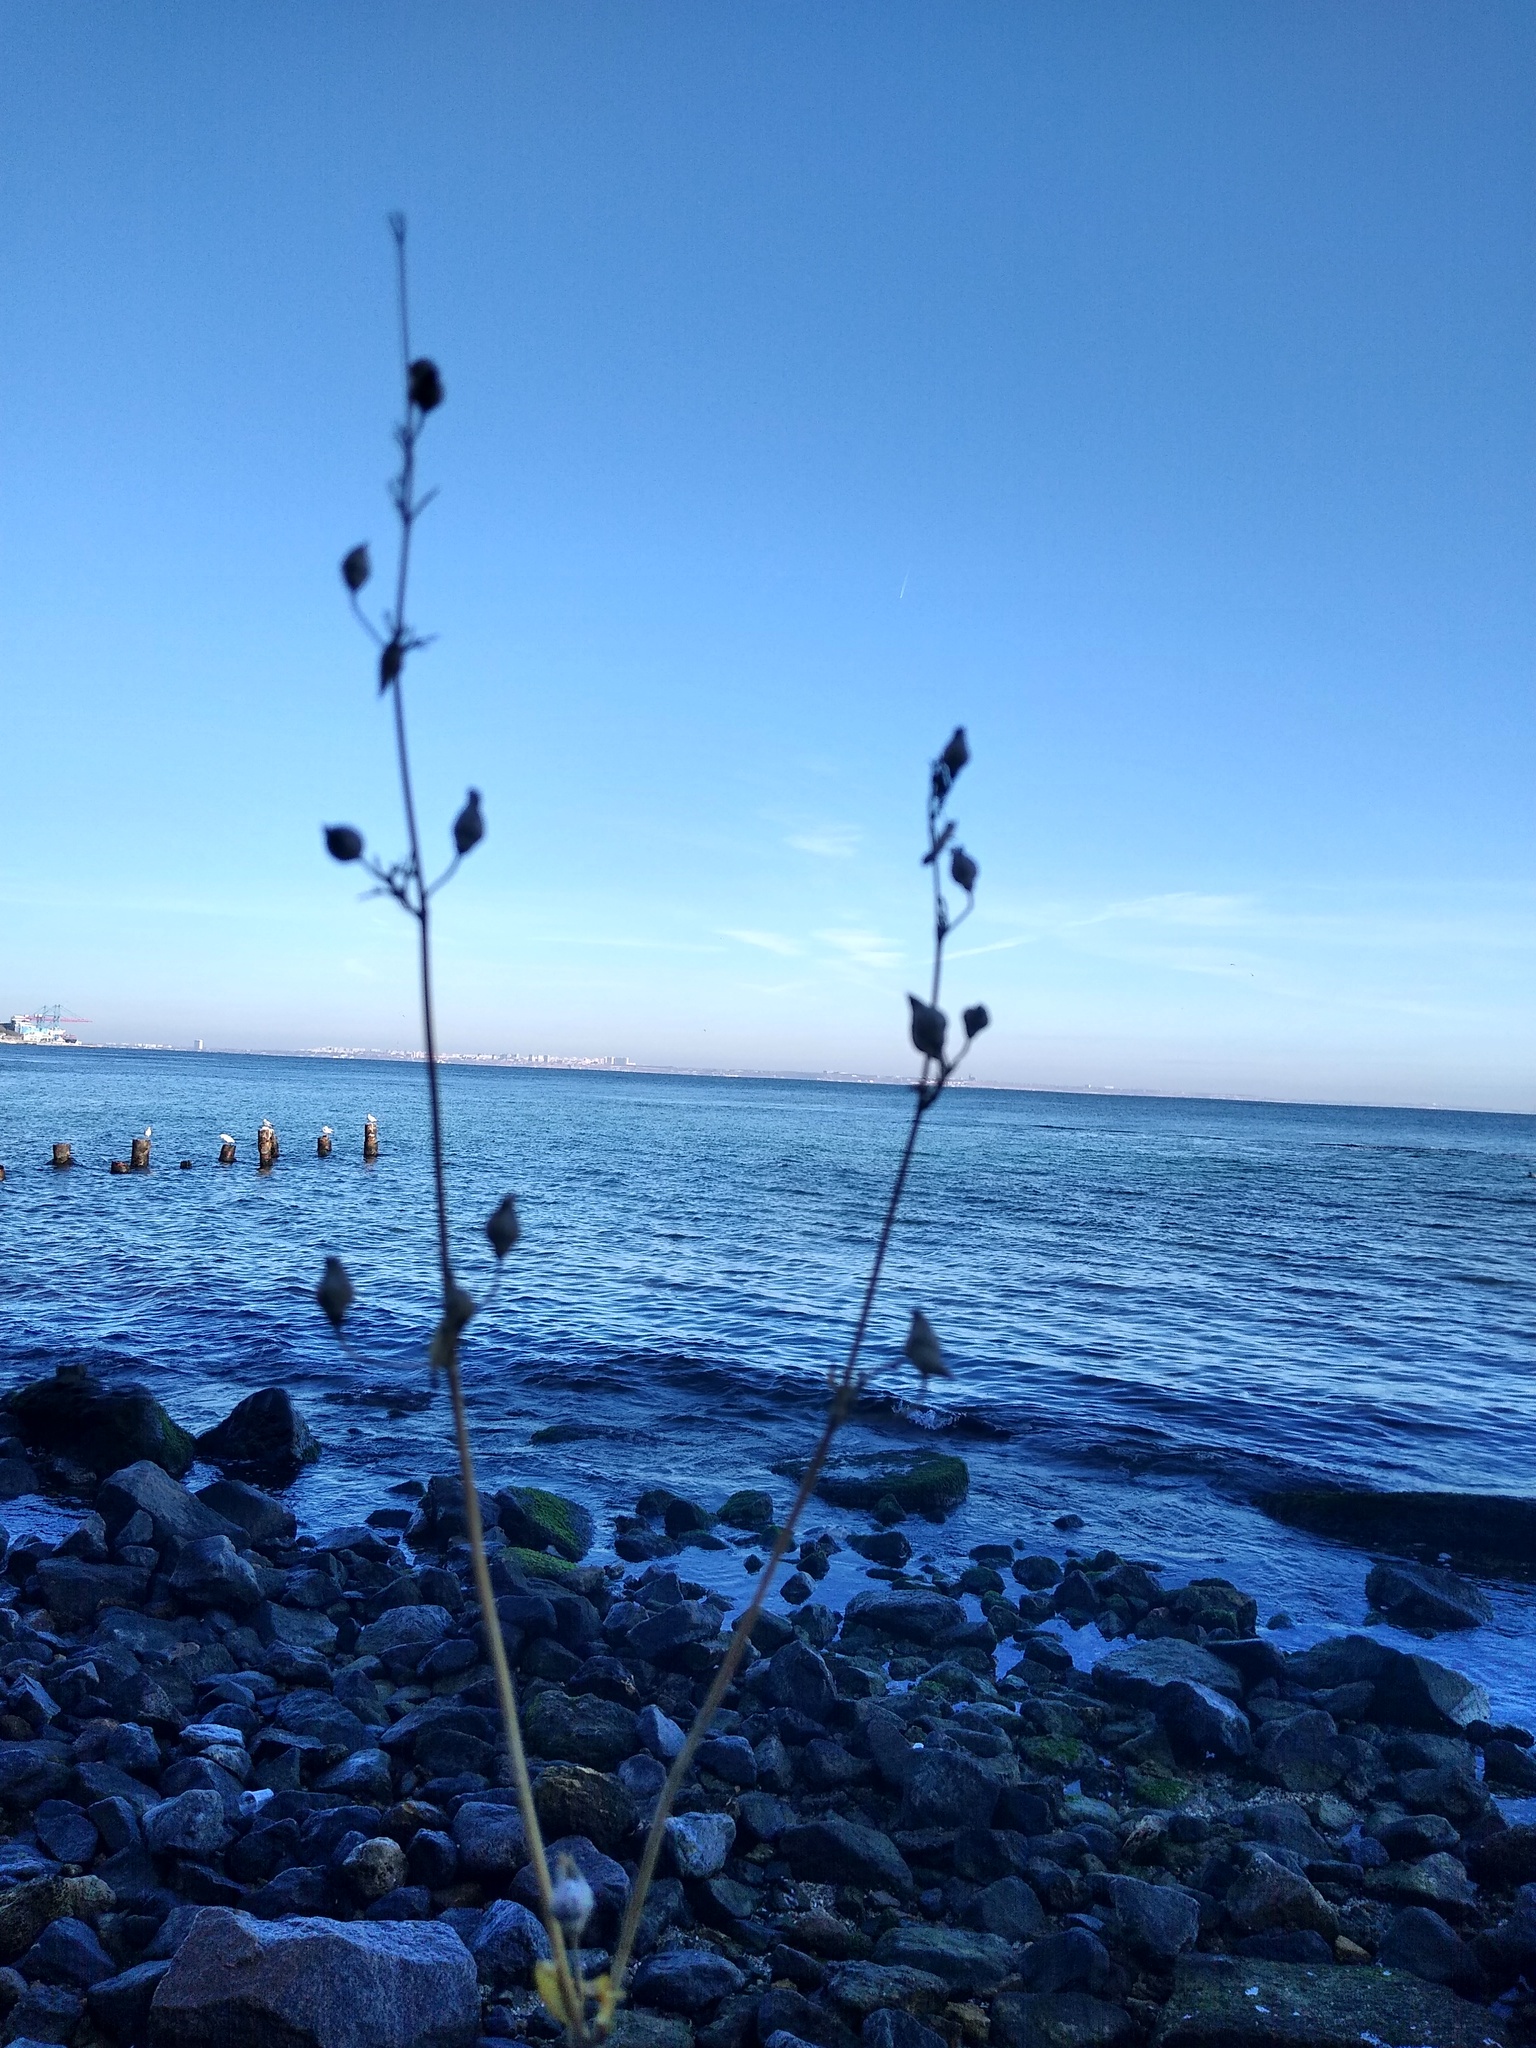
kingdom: Plantae
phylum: Tracheophyta
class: Magnoliopsida
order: Caryophyllales
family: Caryophyllaceae
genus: Silene
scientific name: Silene csereii
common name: Balkan catchfly
